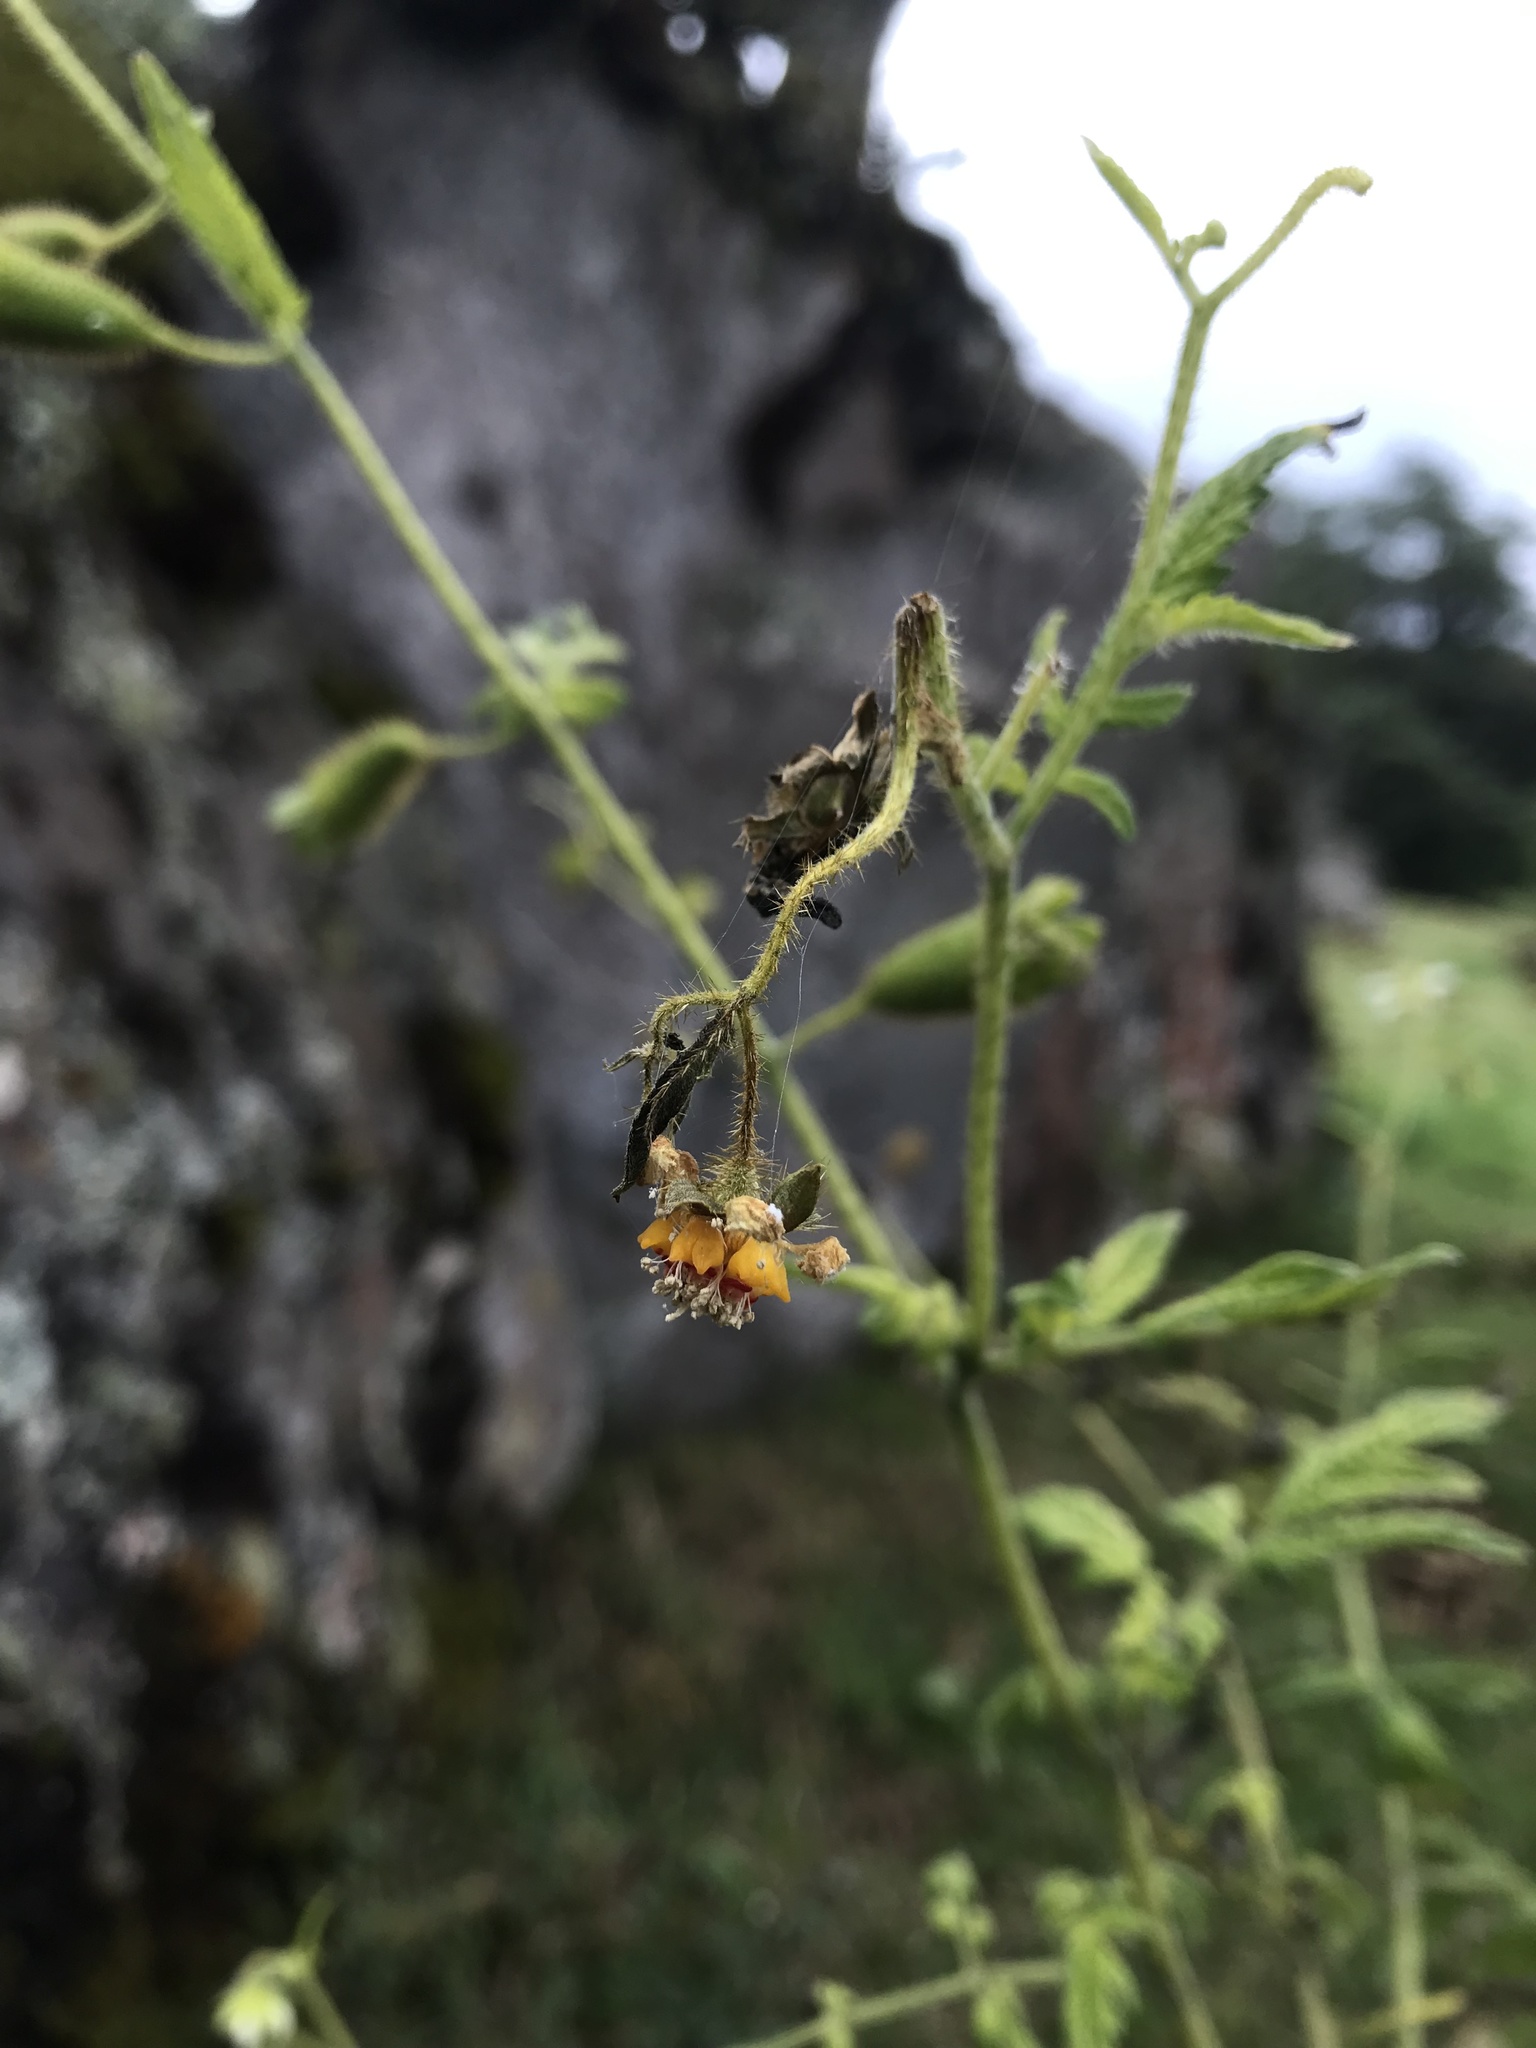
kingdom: Plantae
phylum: Tracheophyta
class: Magnoliopsida
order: Cornales
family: Loasaceae
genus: Nasa
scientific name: Nasa triphylla
